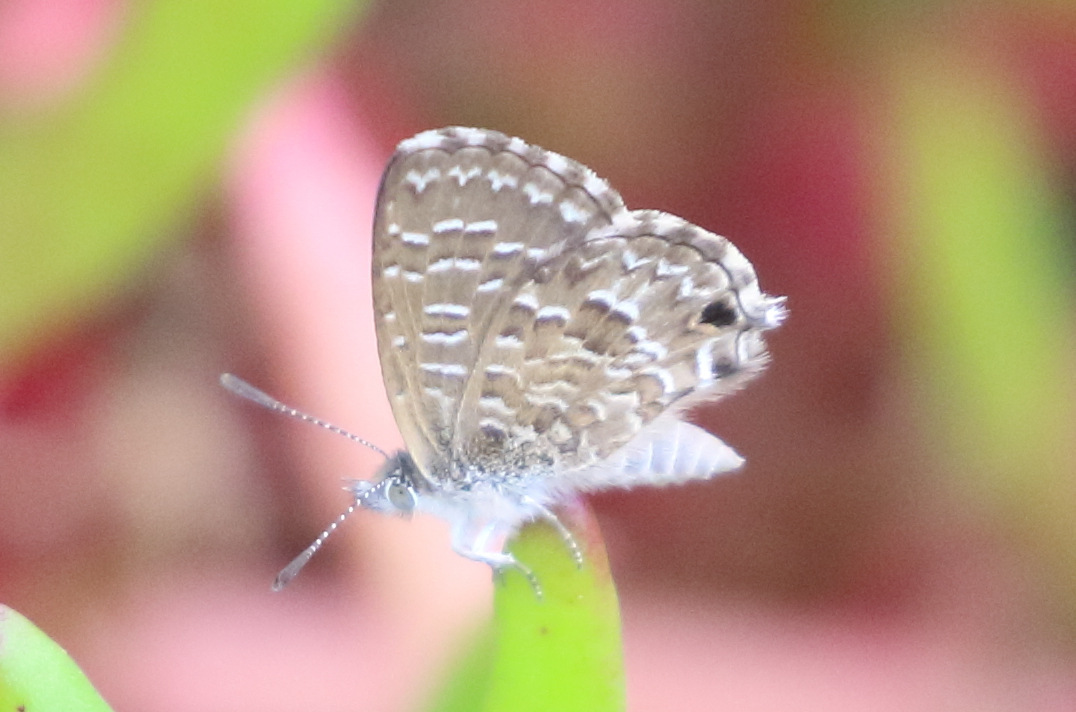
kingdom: Animalia
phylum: Arthropoda
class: Insecta
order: Lepidoptera
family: Lycaenidae
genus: Theclinesthes
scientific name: Theclinesthes sulpitius
